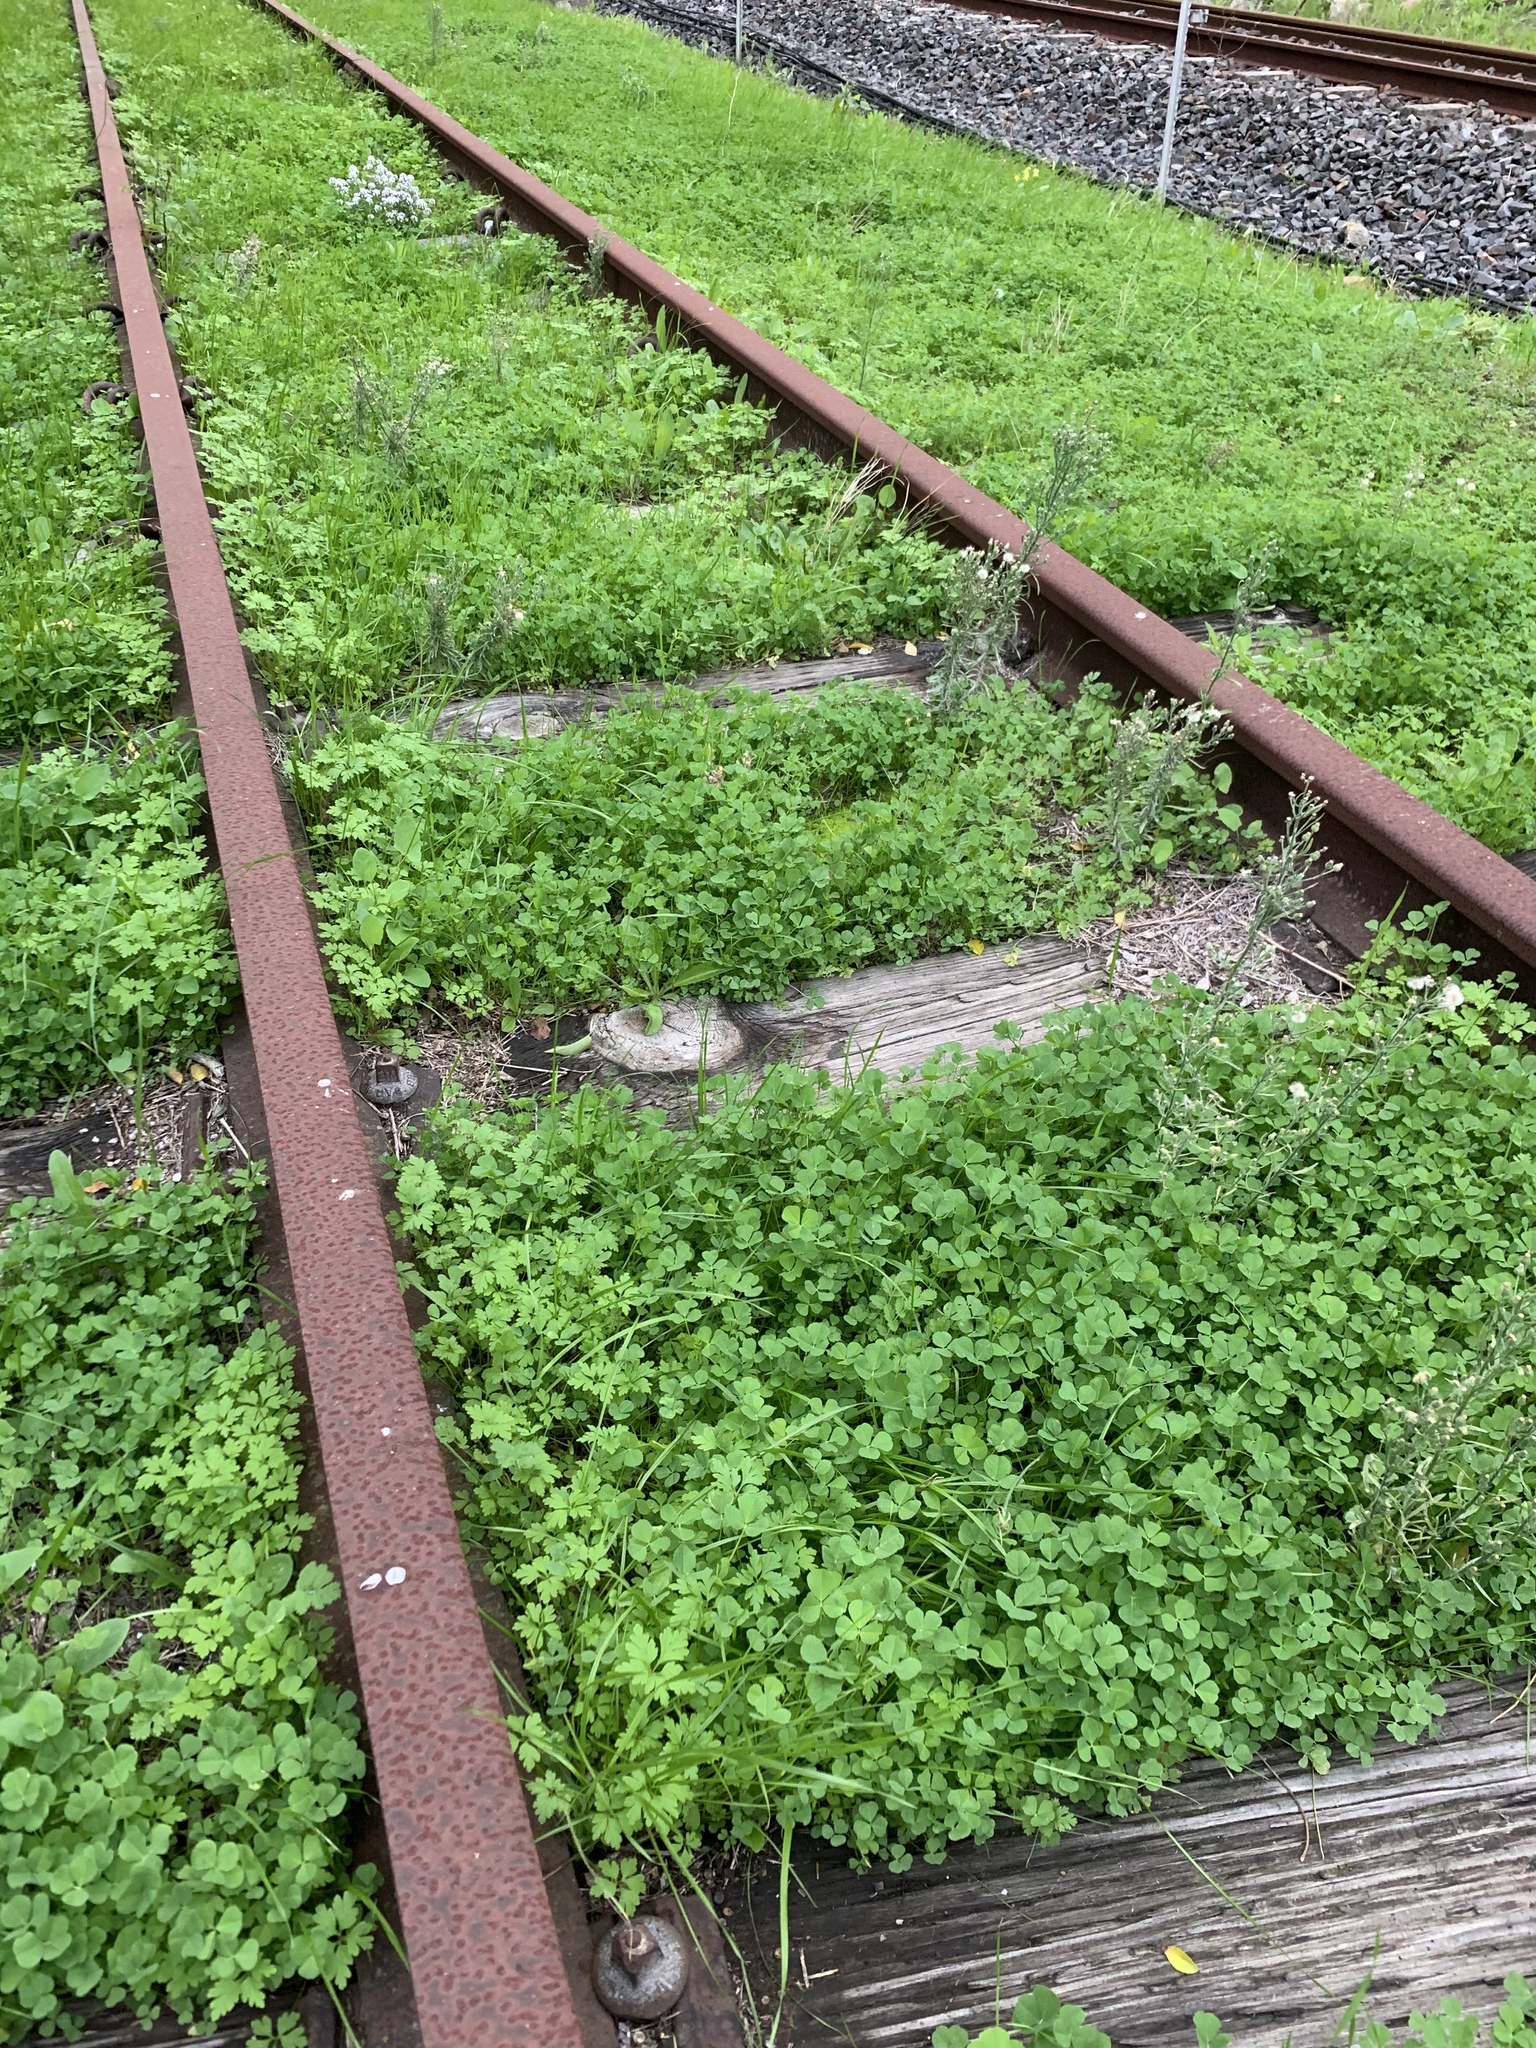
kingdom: Plantae
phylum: Tracheophyta
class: Magnoliopsida
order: Fabales
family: Fabaceae
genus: Medicago
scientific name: Medicago polymorpha
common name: Burclover
